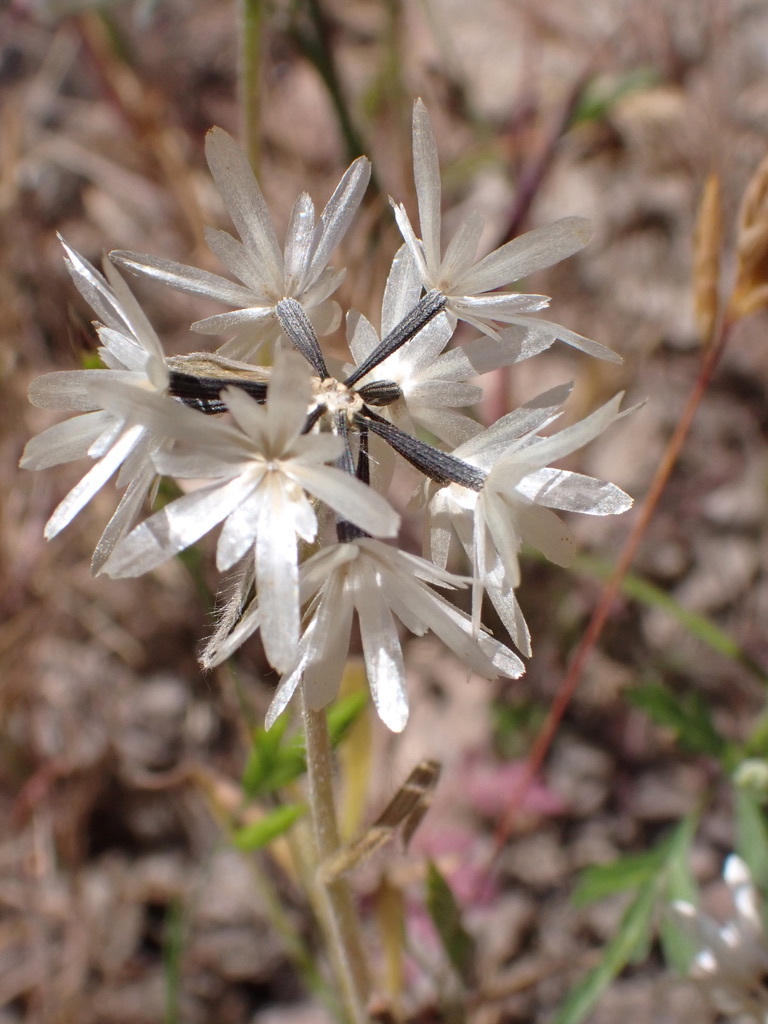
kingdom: Plantae
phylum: Tracheophyta
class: Magnoliopsida
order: Asterales
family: Asteraceae
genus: Achyrachaena
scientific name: Achyrachaena mollis
